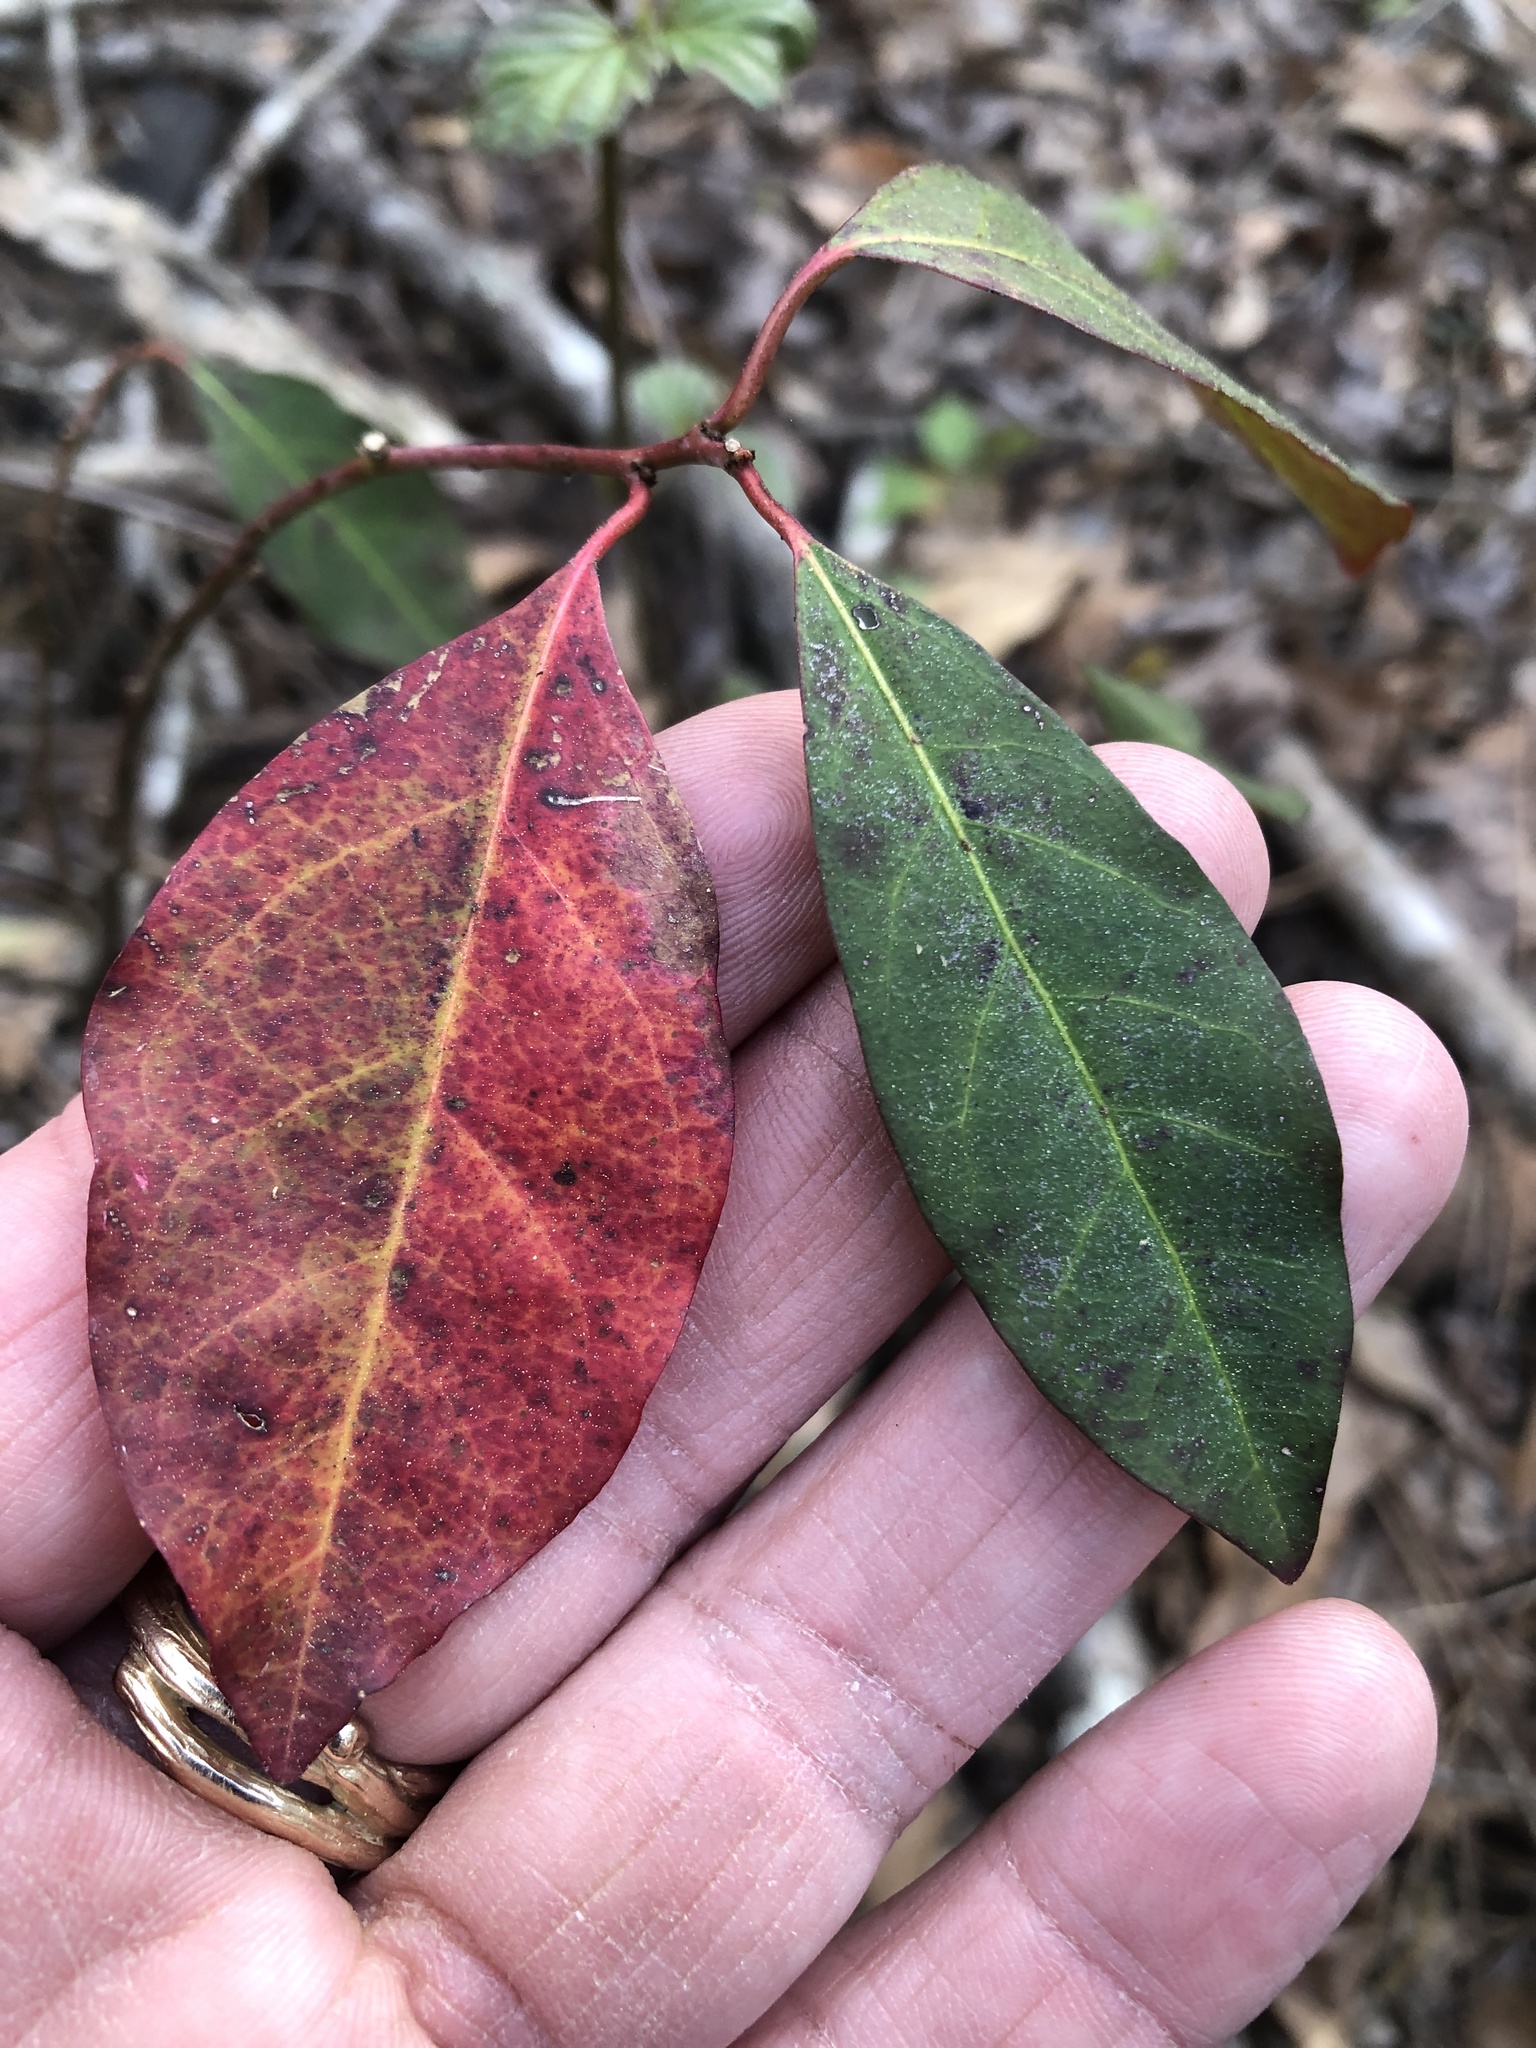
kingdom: Plantae
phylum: Tracheophyta
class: Magnoliopsida
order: Cornales
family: Nyssaceae
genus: Nyssa
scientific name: Nyssa sylvatica
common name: Black tupelo
